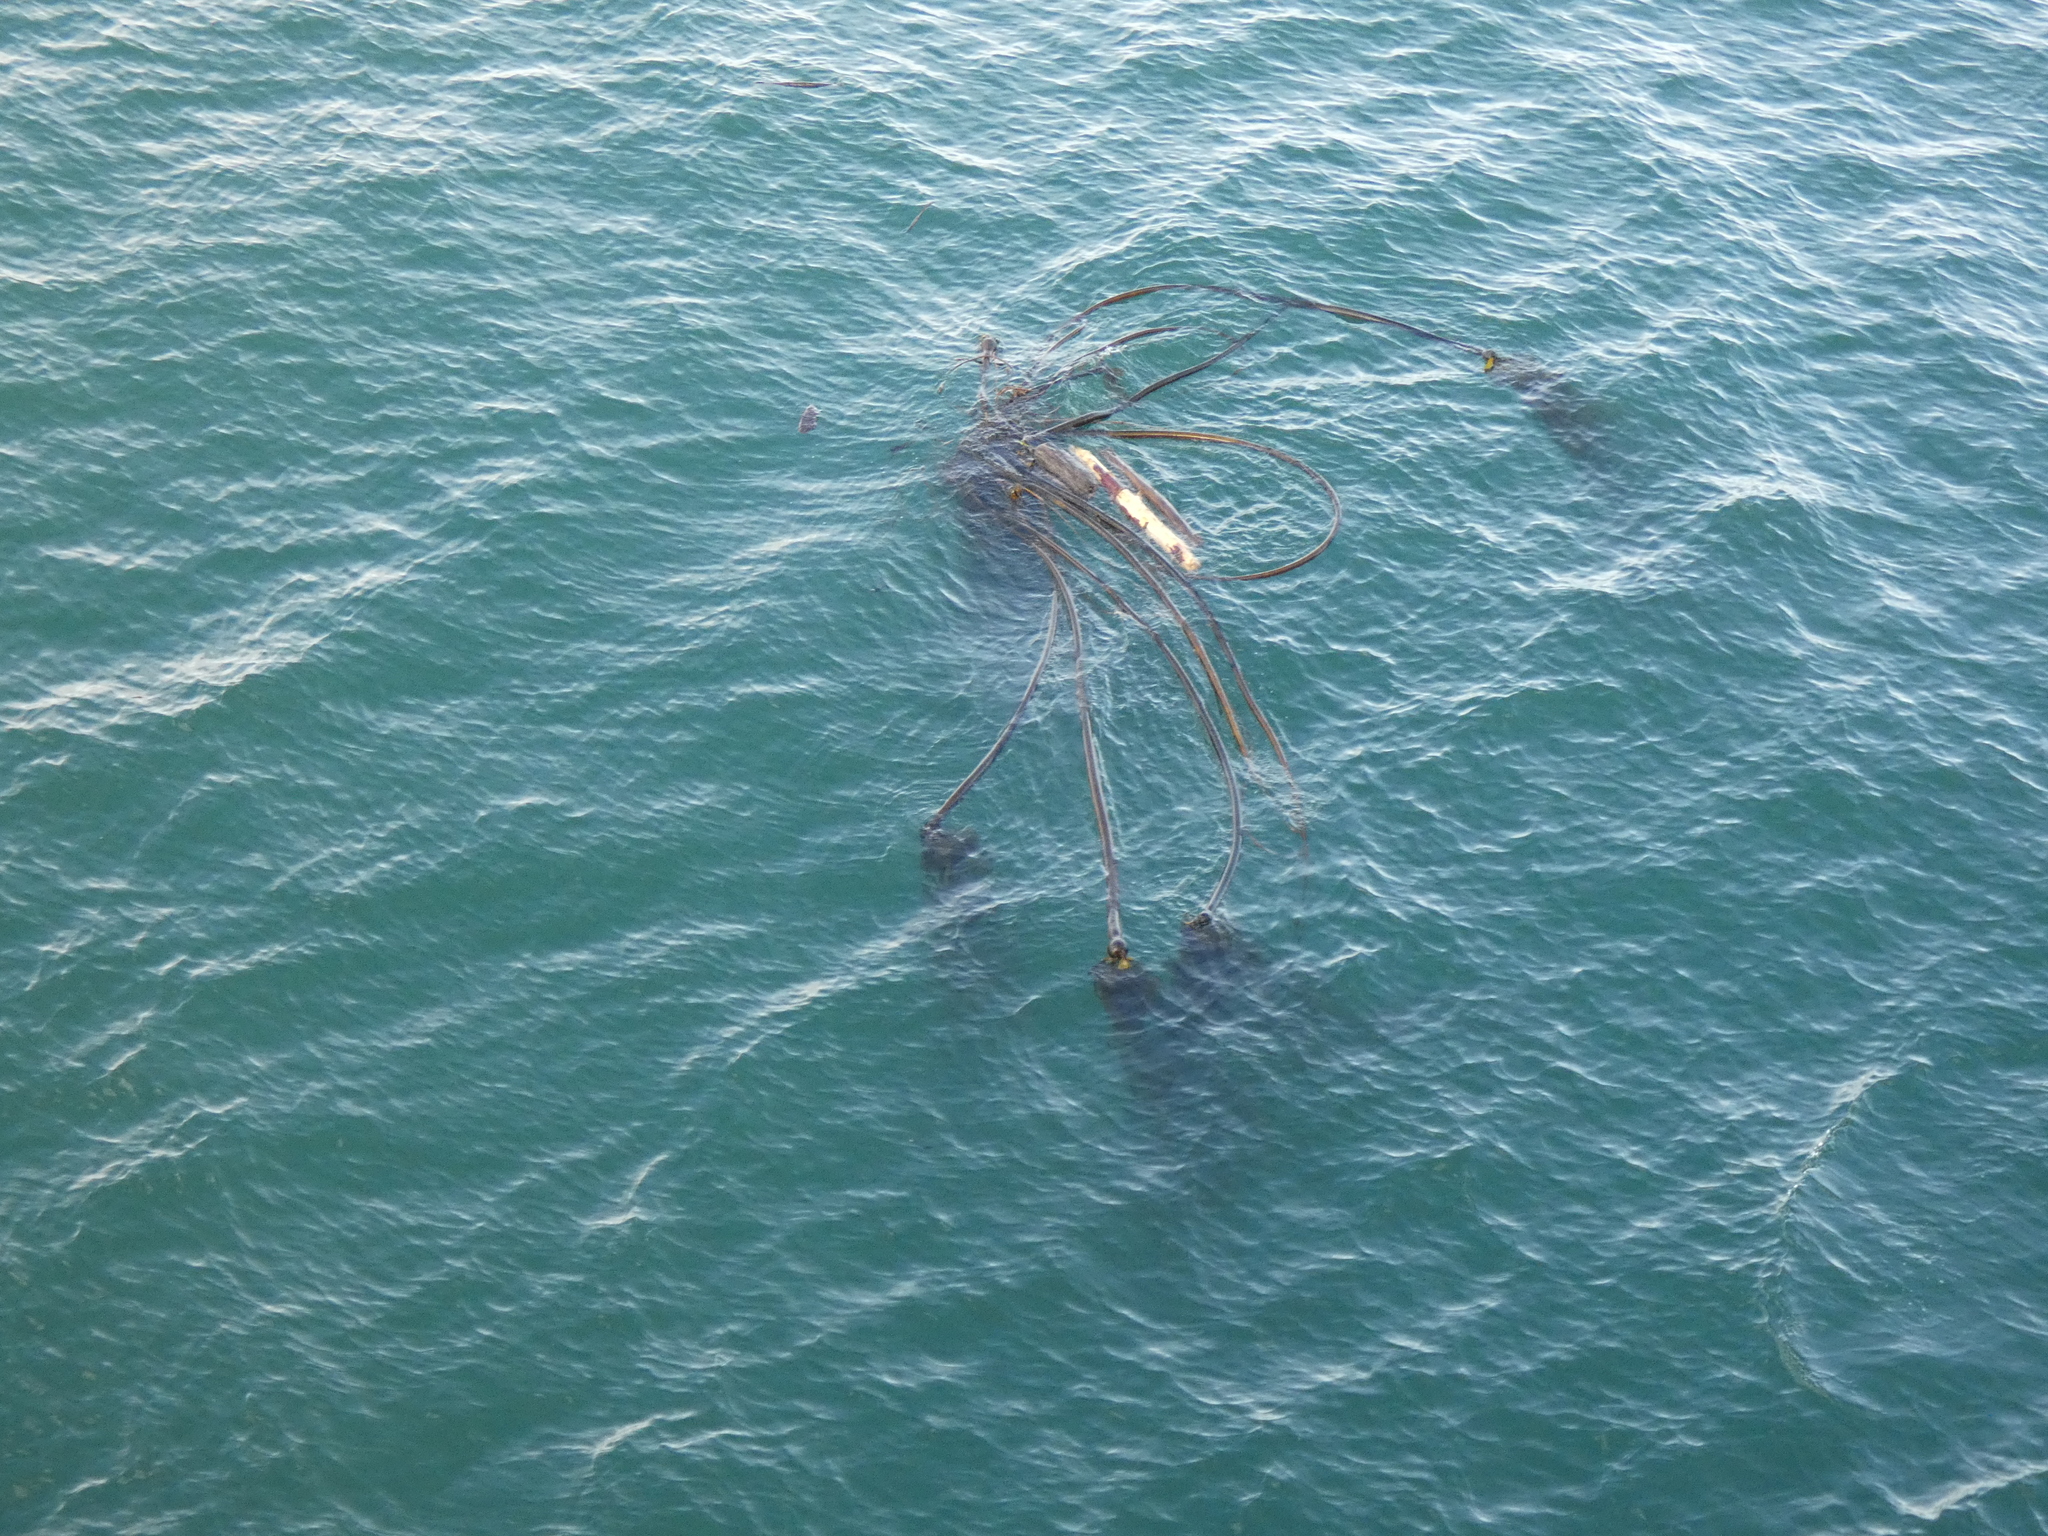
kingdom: Chromista
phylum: Ochrophyta
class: Phaeophyceae
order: Laminariales
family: Laminariaceae
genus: Nereocystis
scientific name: Nereocystis luetkeana
